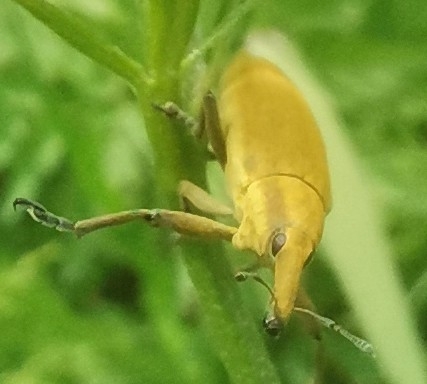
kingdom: Animalia
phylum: Arthropoda
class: Insecta
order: Coleoptera
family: Curculionidae
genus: Lixus
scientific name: Lixus iridis
